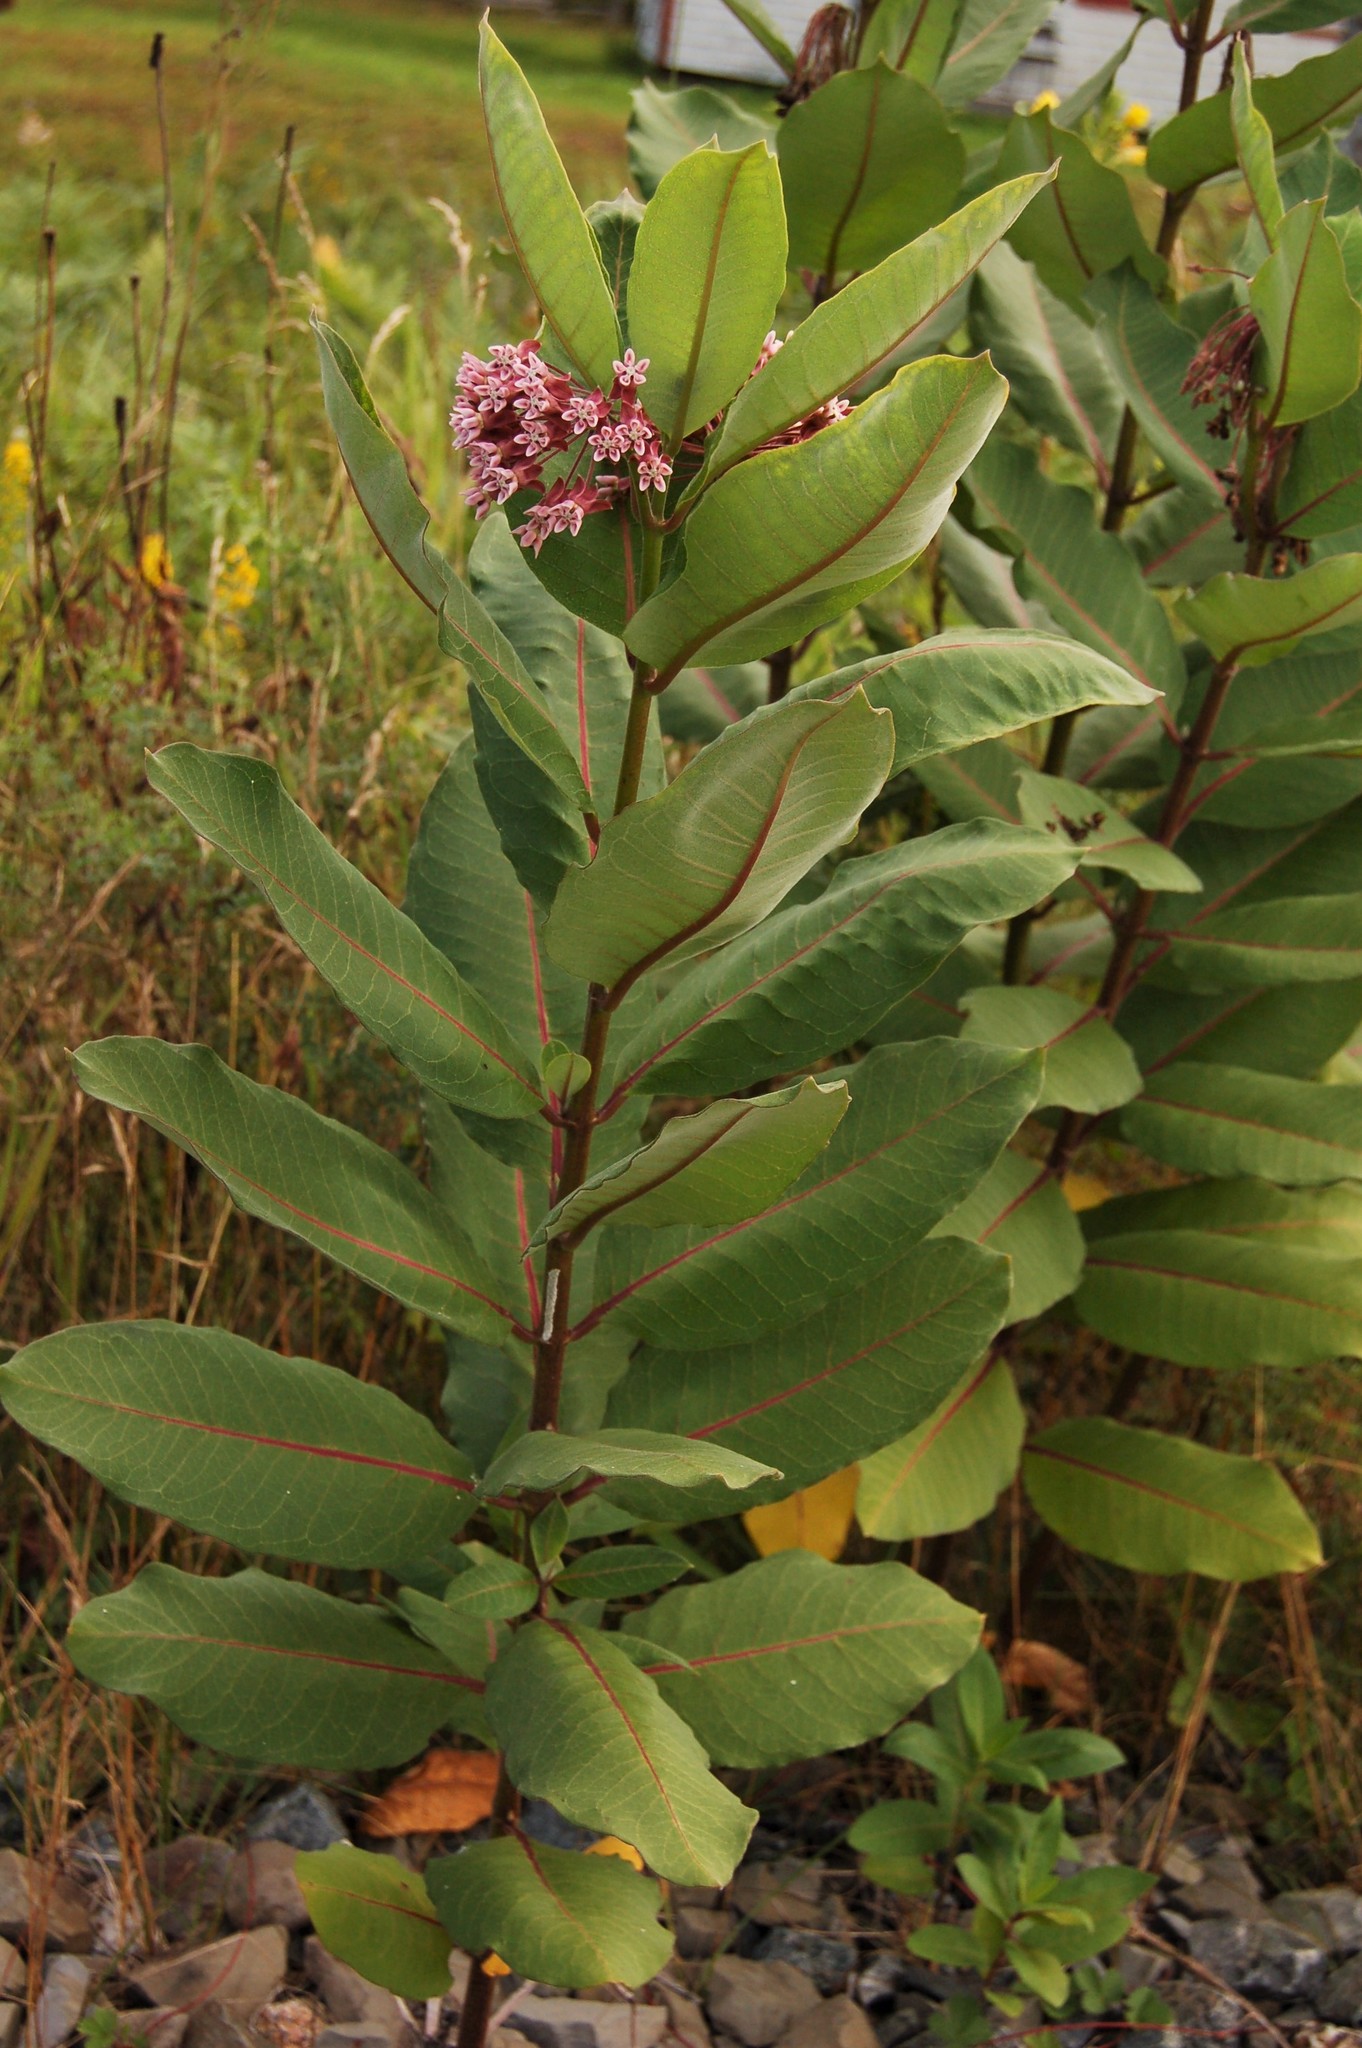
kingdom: Plantae
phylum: Tracheophyta
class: Magnoliopsida
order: Gentianales
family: Apocynaceae
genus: Asclepias
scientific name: Asclepias syriaca
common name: Common milkweed
